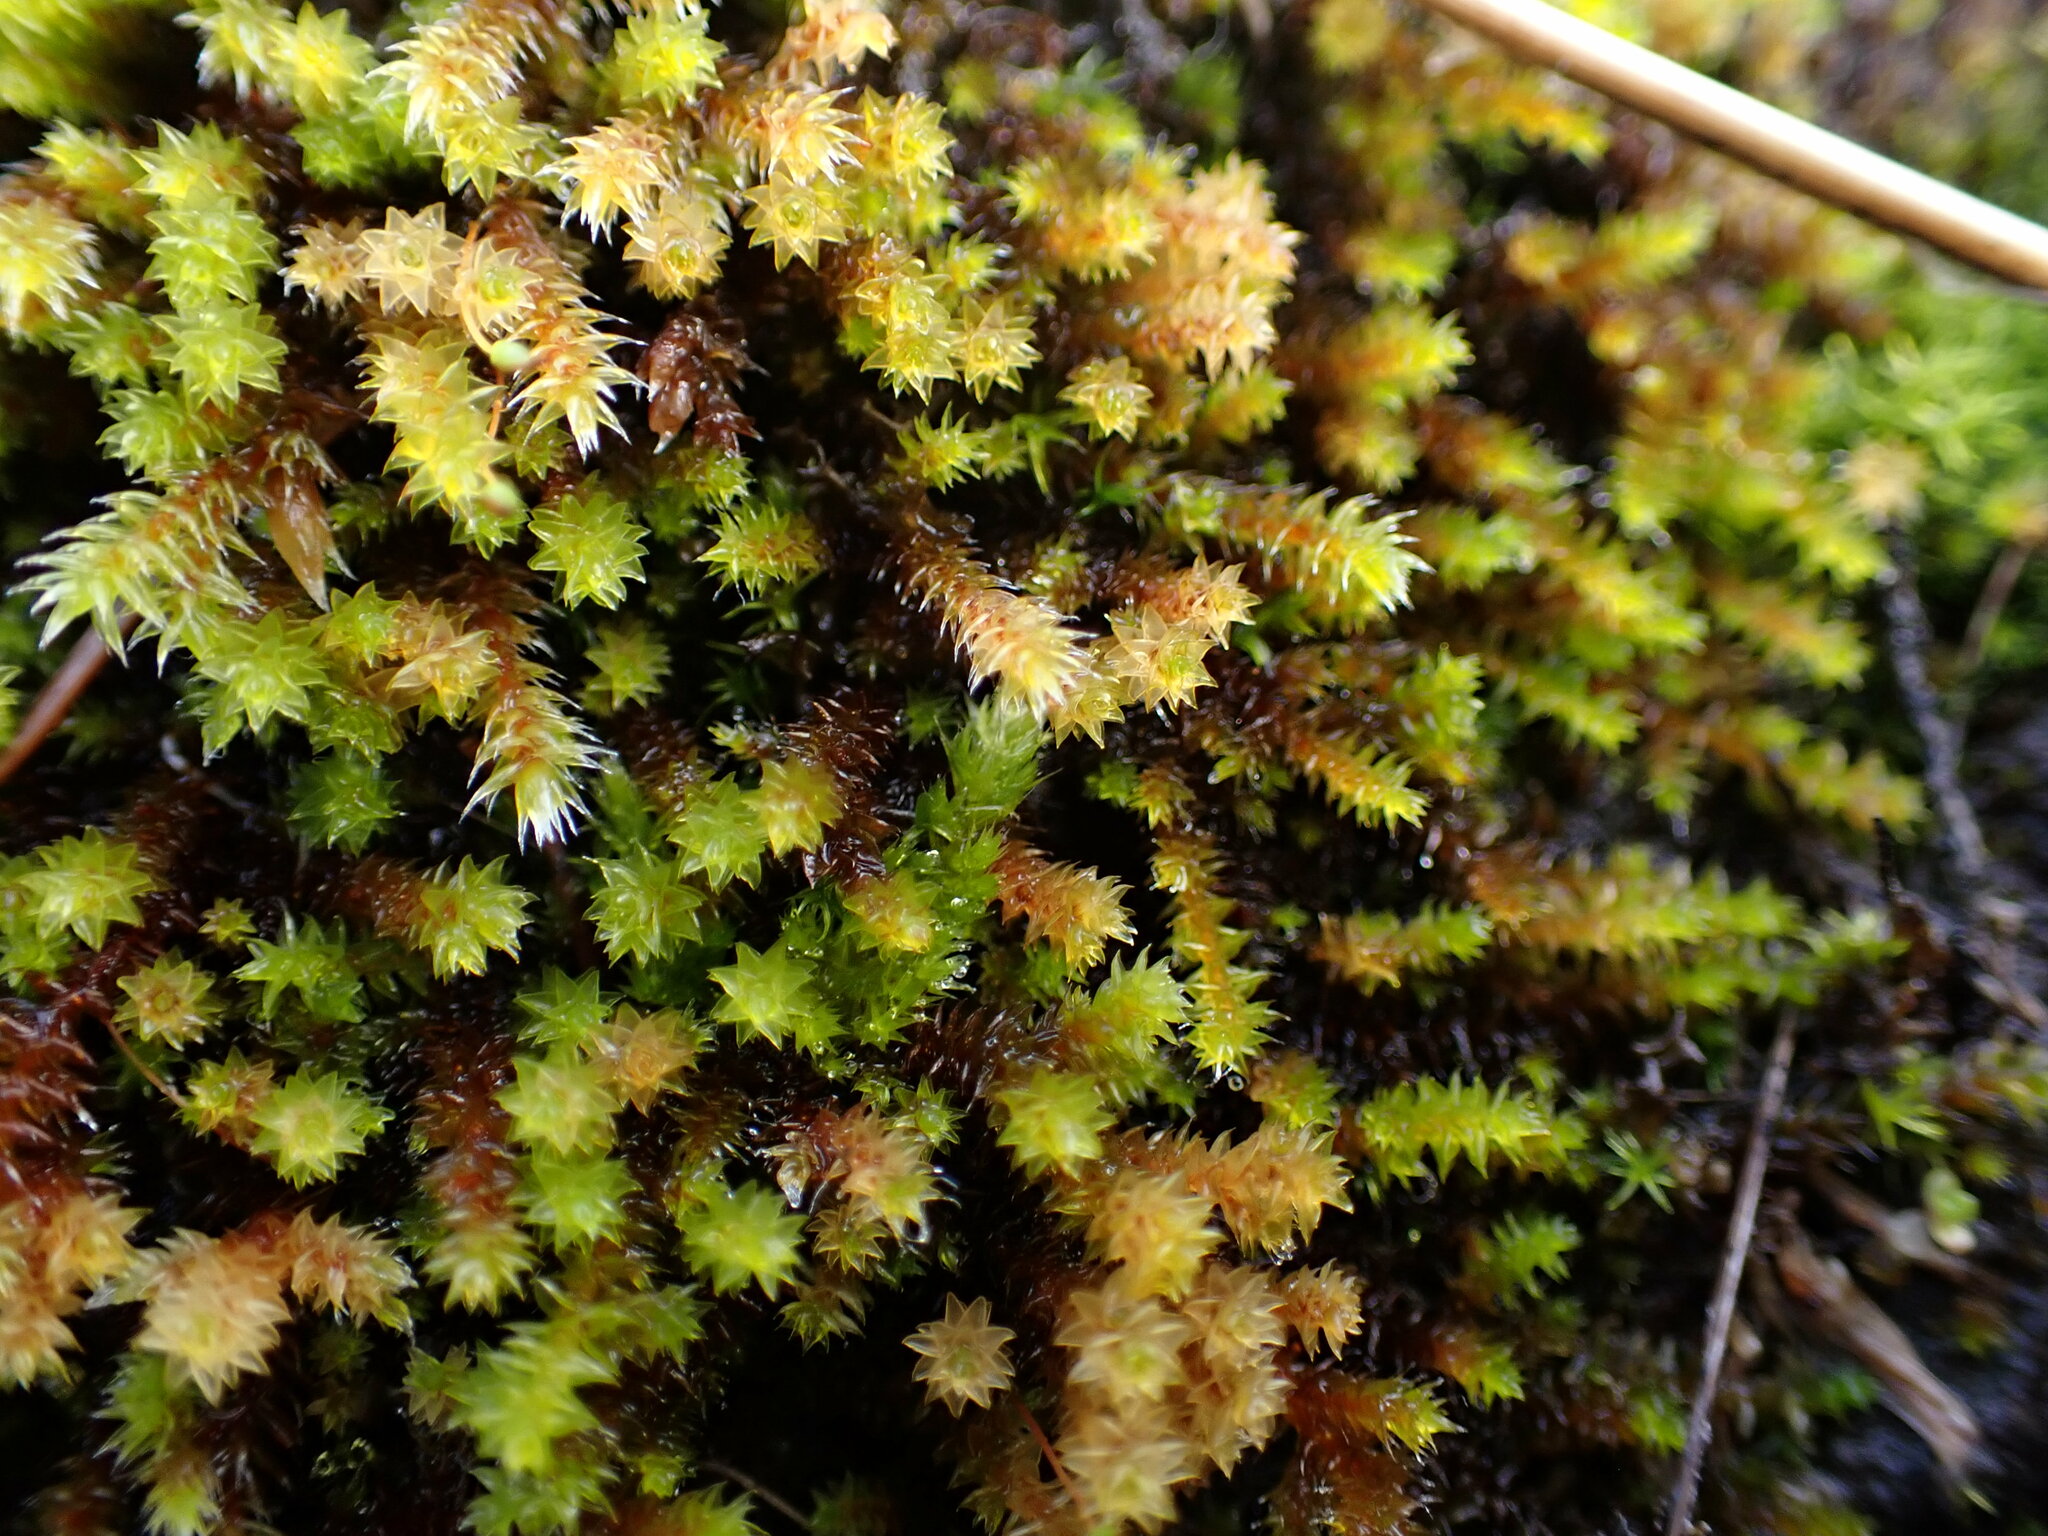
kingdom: Plantae
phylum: Bryophyta
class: Bryopsida
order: Hedwigiales
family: Hedwigiaceae
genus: Pseudobraunia
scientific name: Pseudobraunia californica
